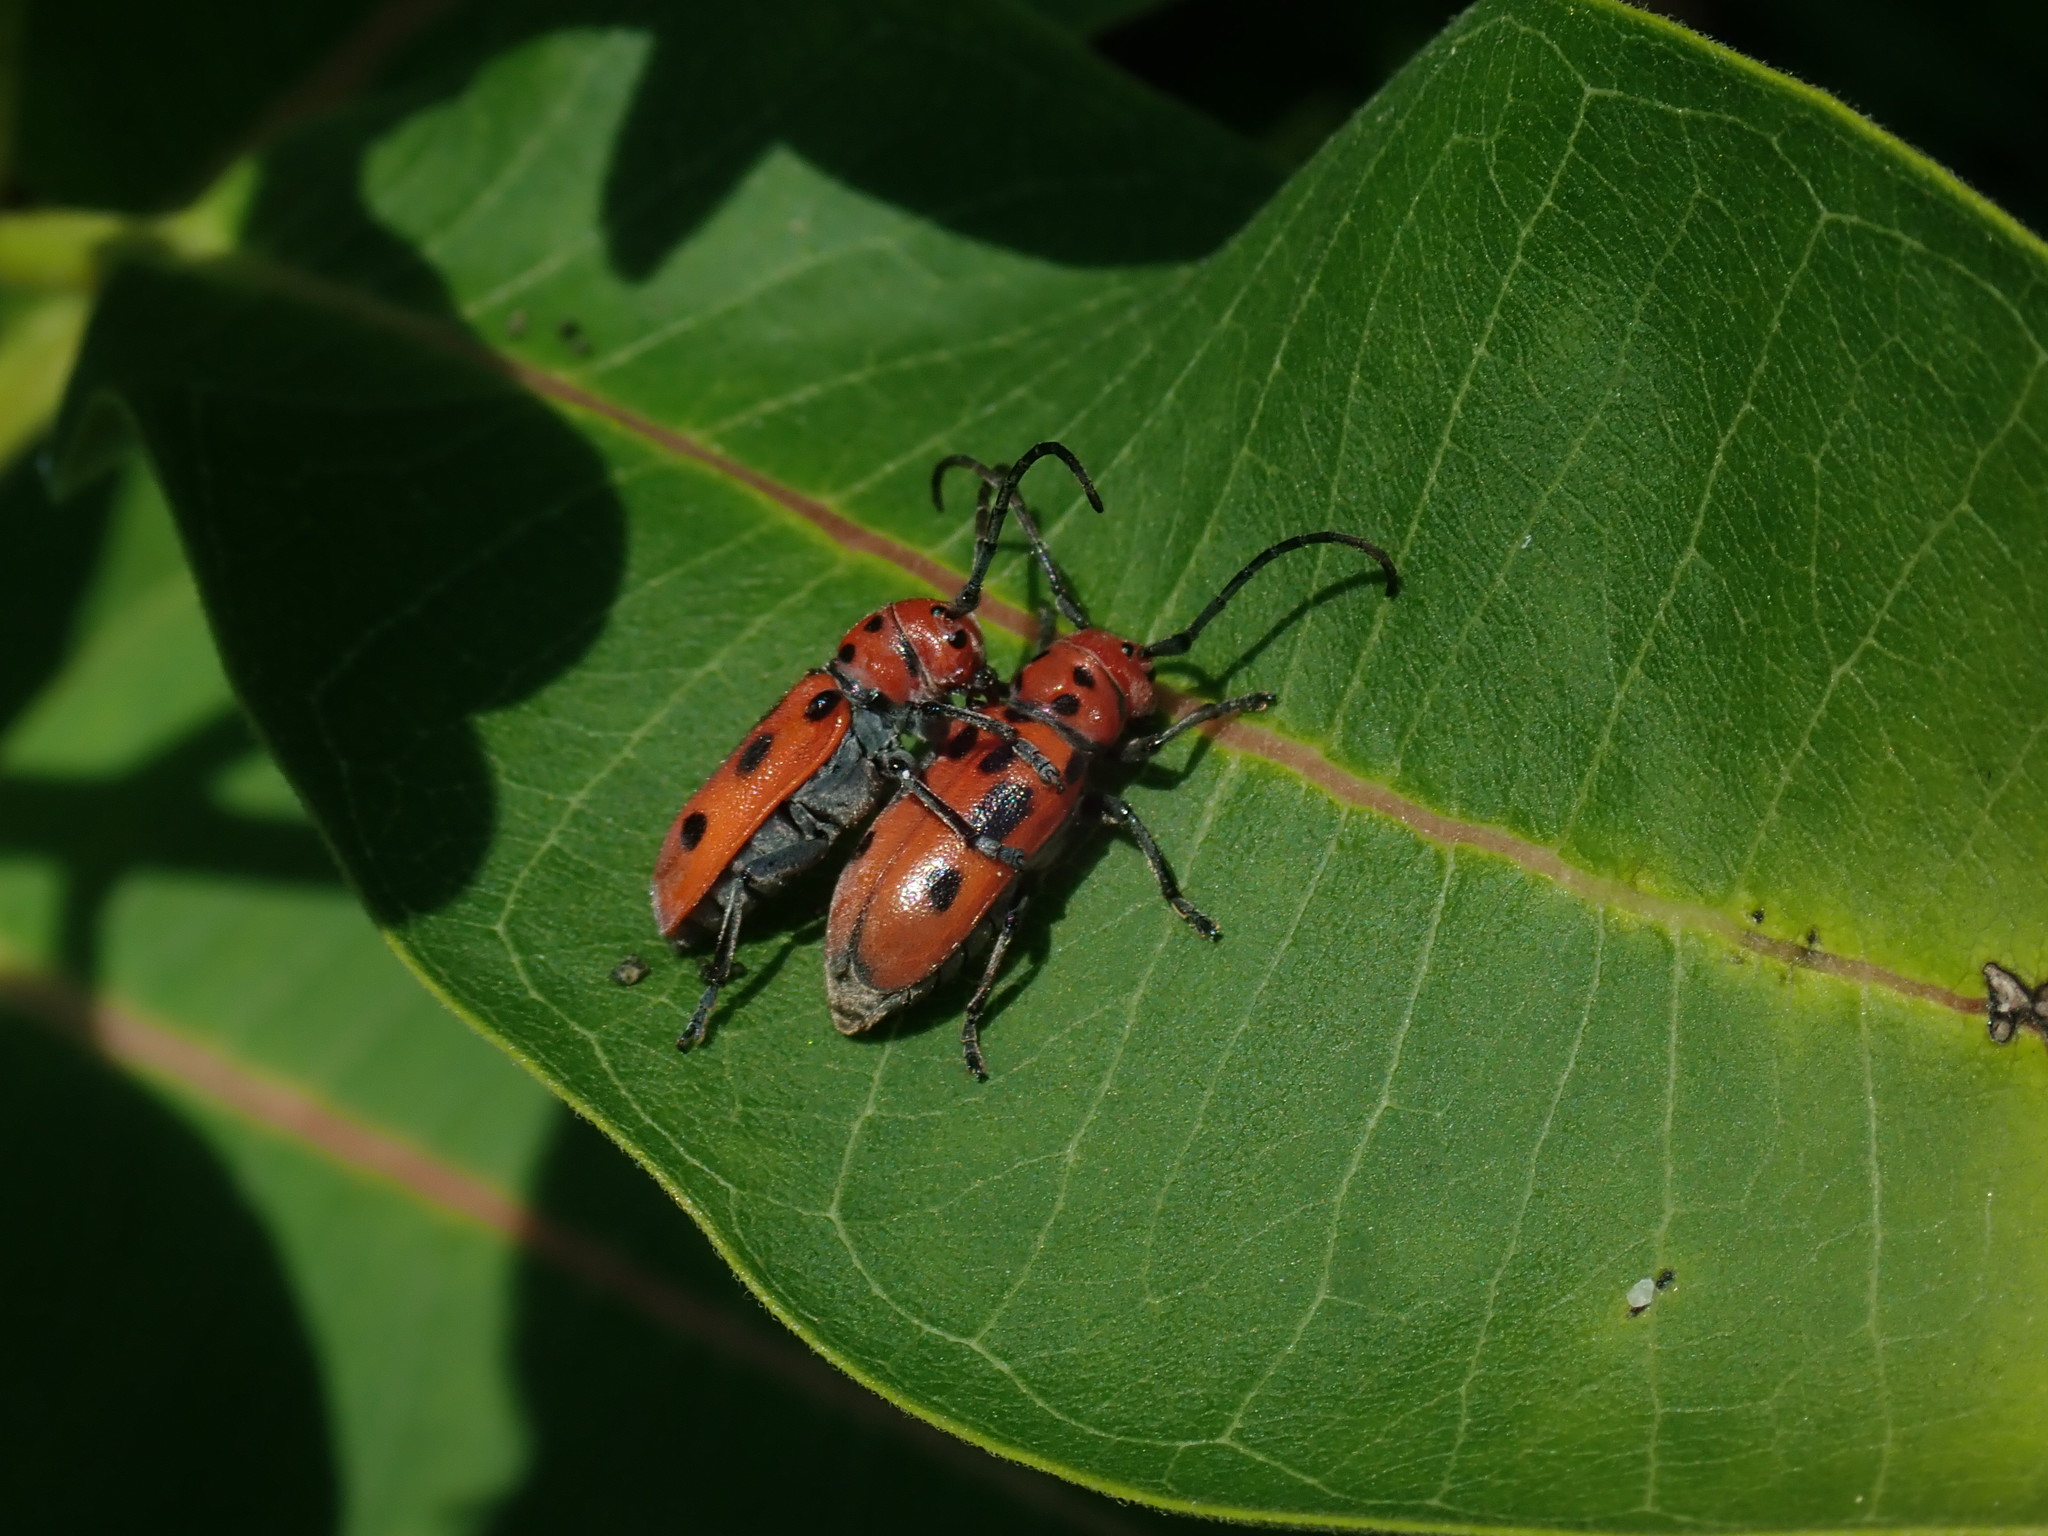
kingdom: Animalia
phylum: Arthropoda
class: Insecta
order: Coleoptera
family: Cerambycidae
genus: Tetraopes
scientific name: Tetraopes tetrophthalmus
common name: Red milkweed beetle
